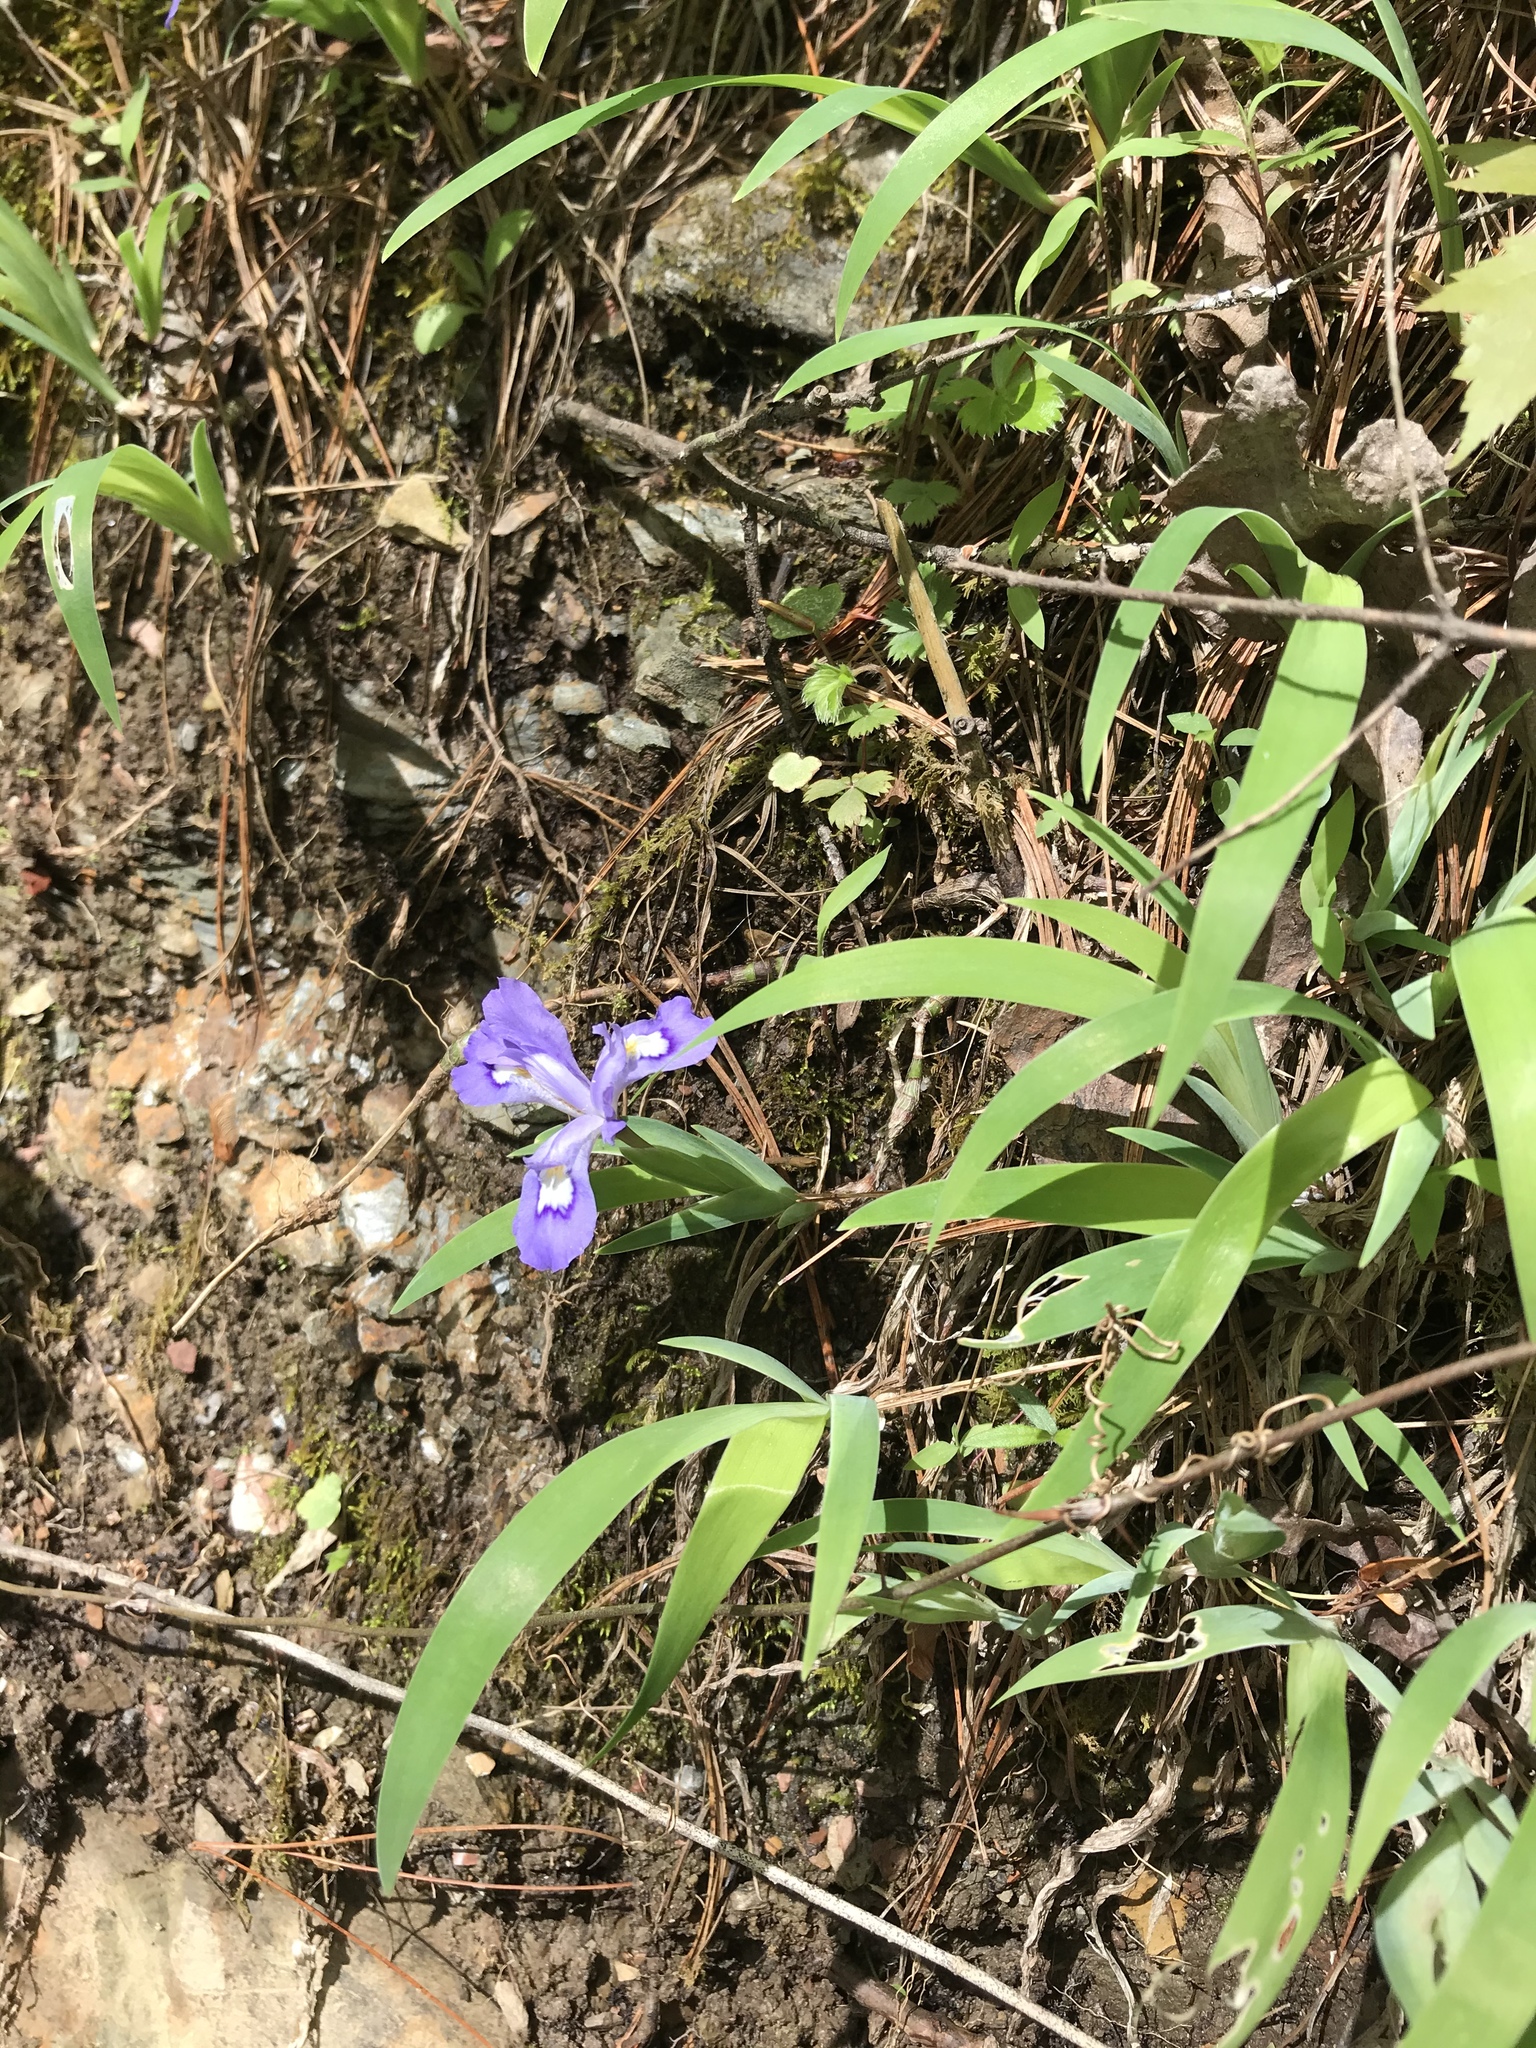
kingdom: Plantae
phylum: Tracheophyta
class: Liliopsida
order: Asparagales
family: Iridaceae
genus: Iris
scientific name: Iris cristata
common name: Crested iris
